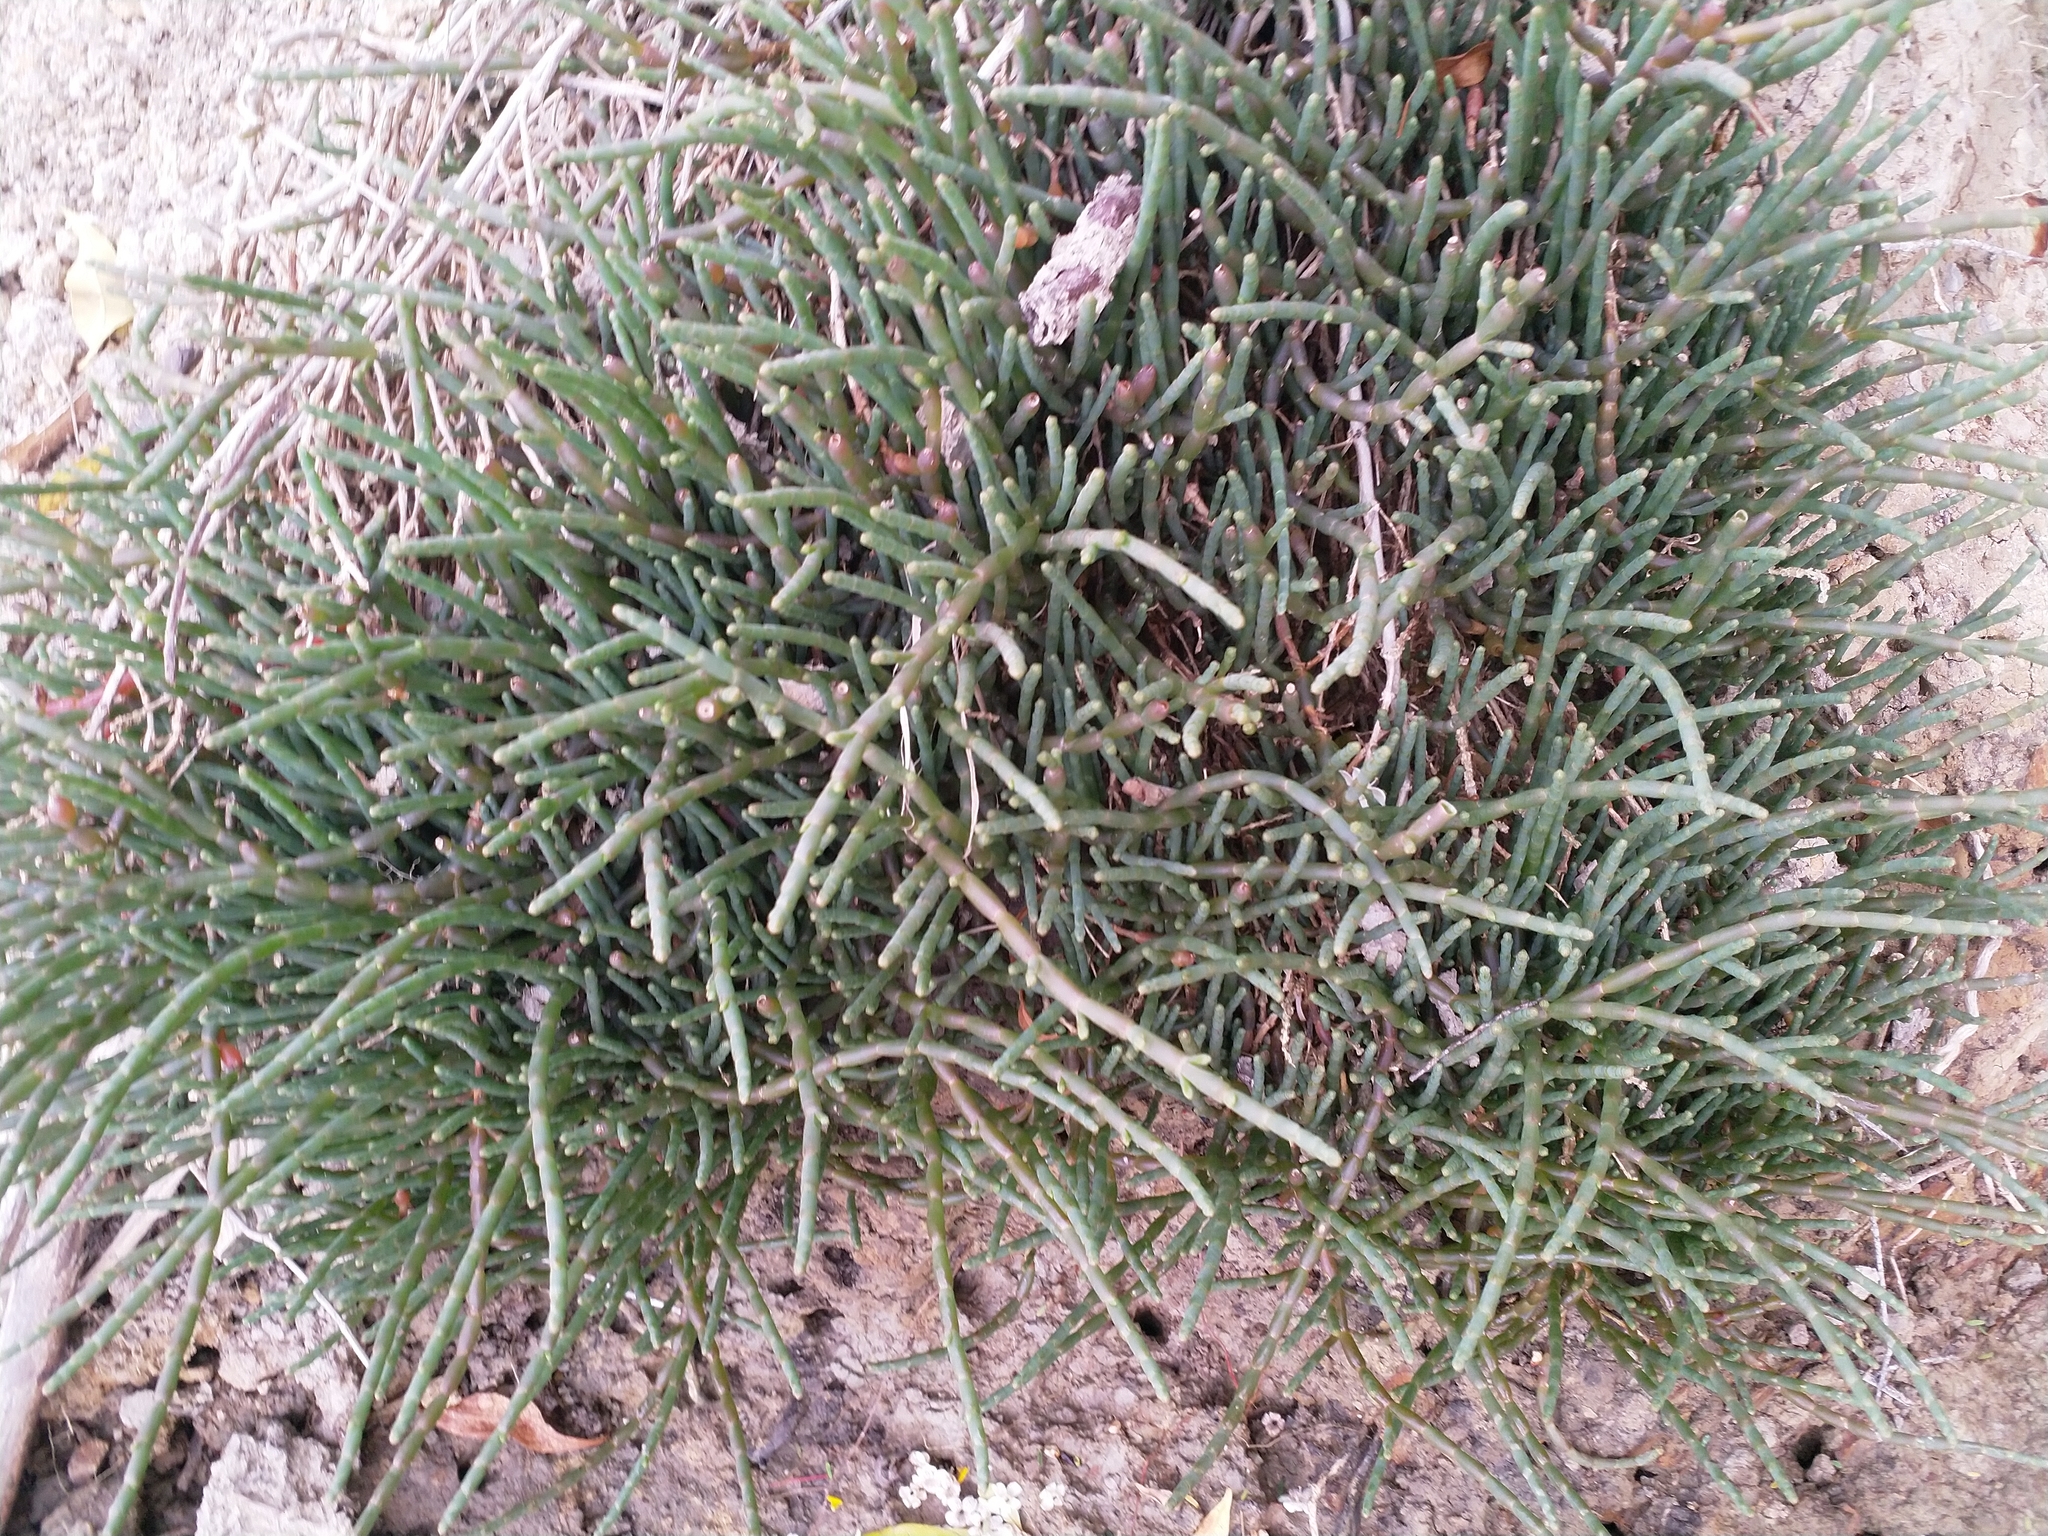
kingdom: Plantae
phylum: Tracheophyta
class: Magnoliopsida
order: Caryophyllales
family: Amaranthaceae
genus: Salicornia
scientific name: Salicornia quinqueflora
